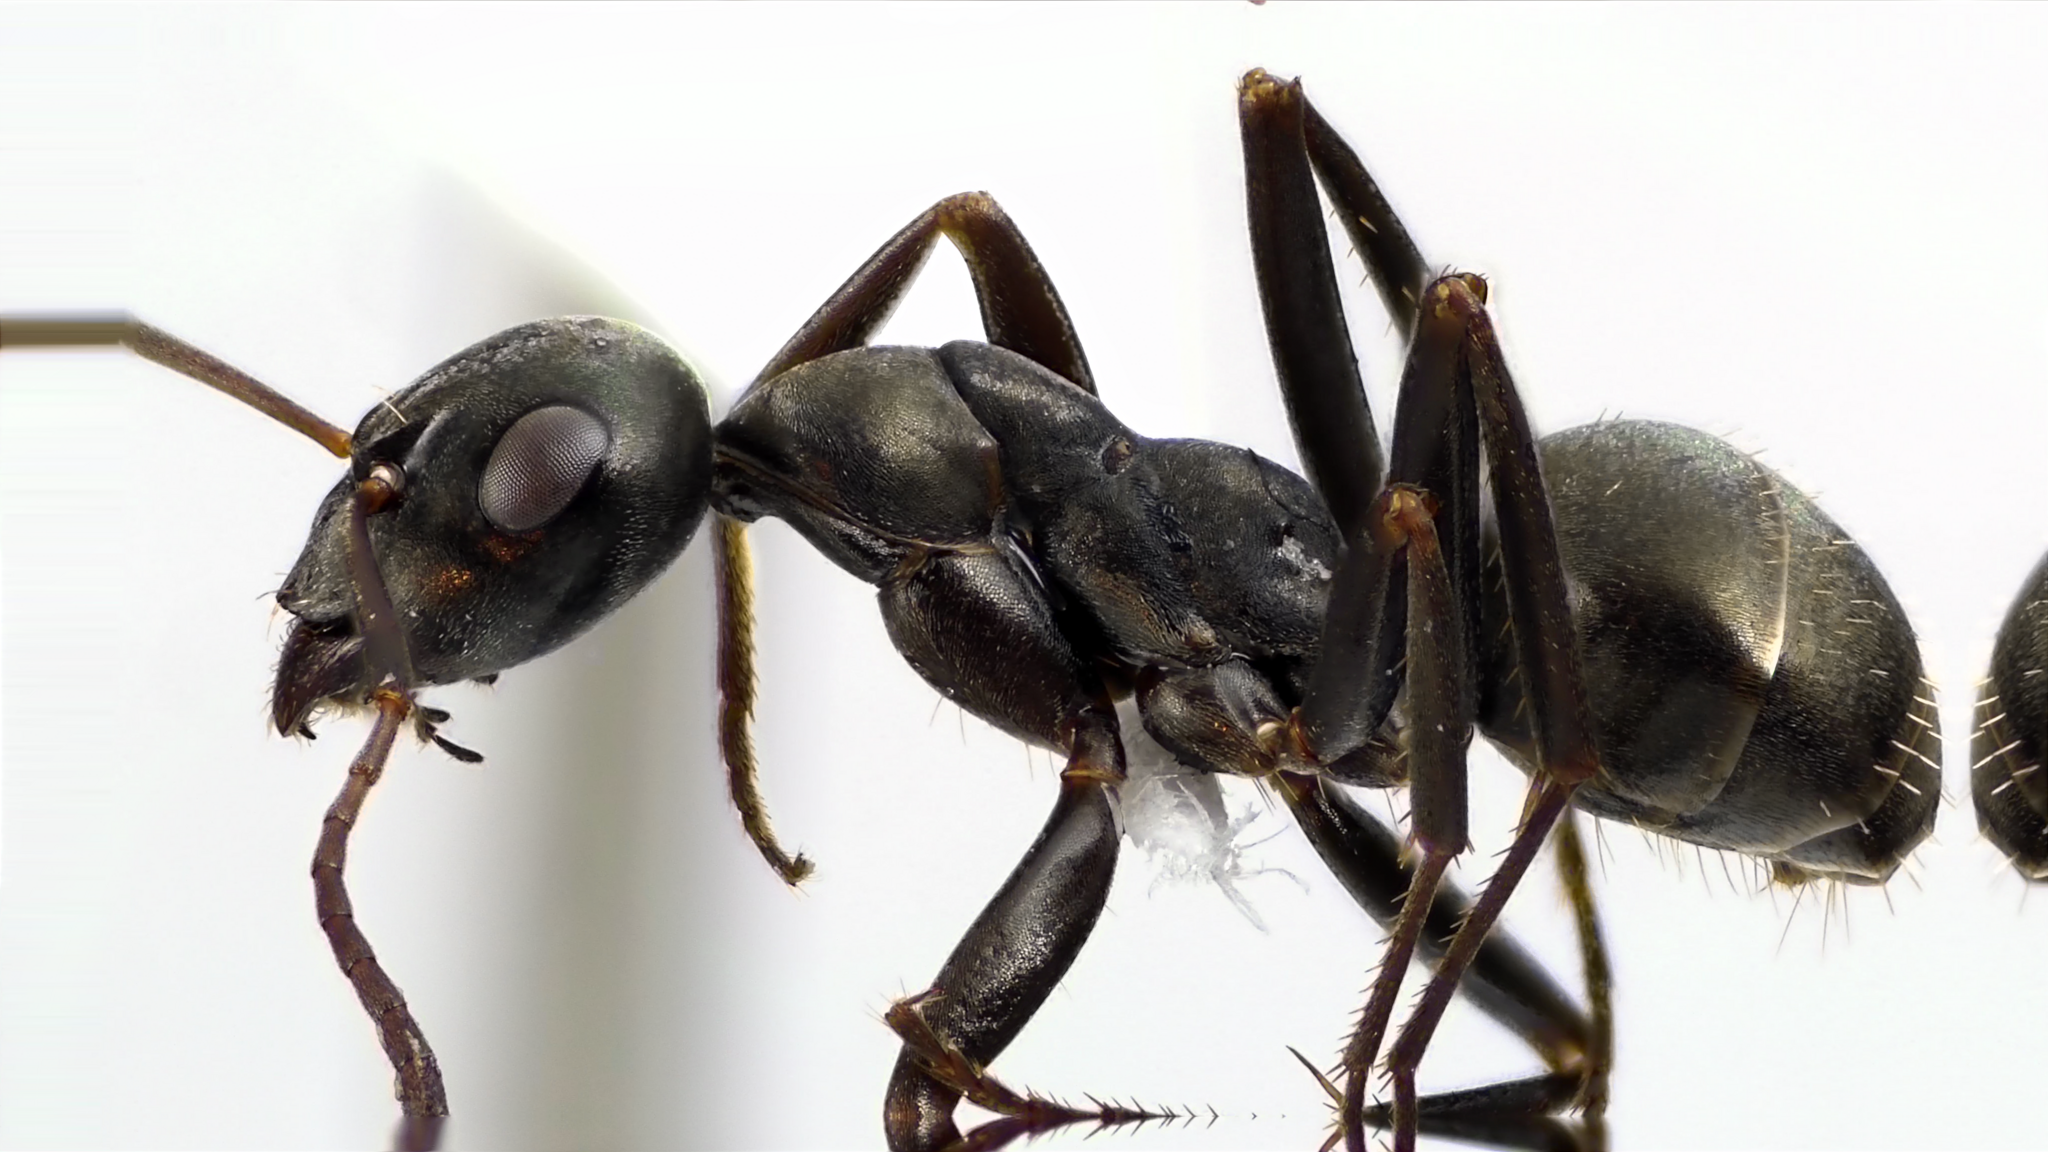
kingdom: Animalia
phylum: Arthropoda
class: Insecta
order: Hymenoptera
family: Formicidae
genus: Formica
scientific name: Formica subaenescens
